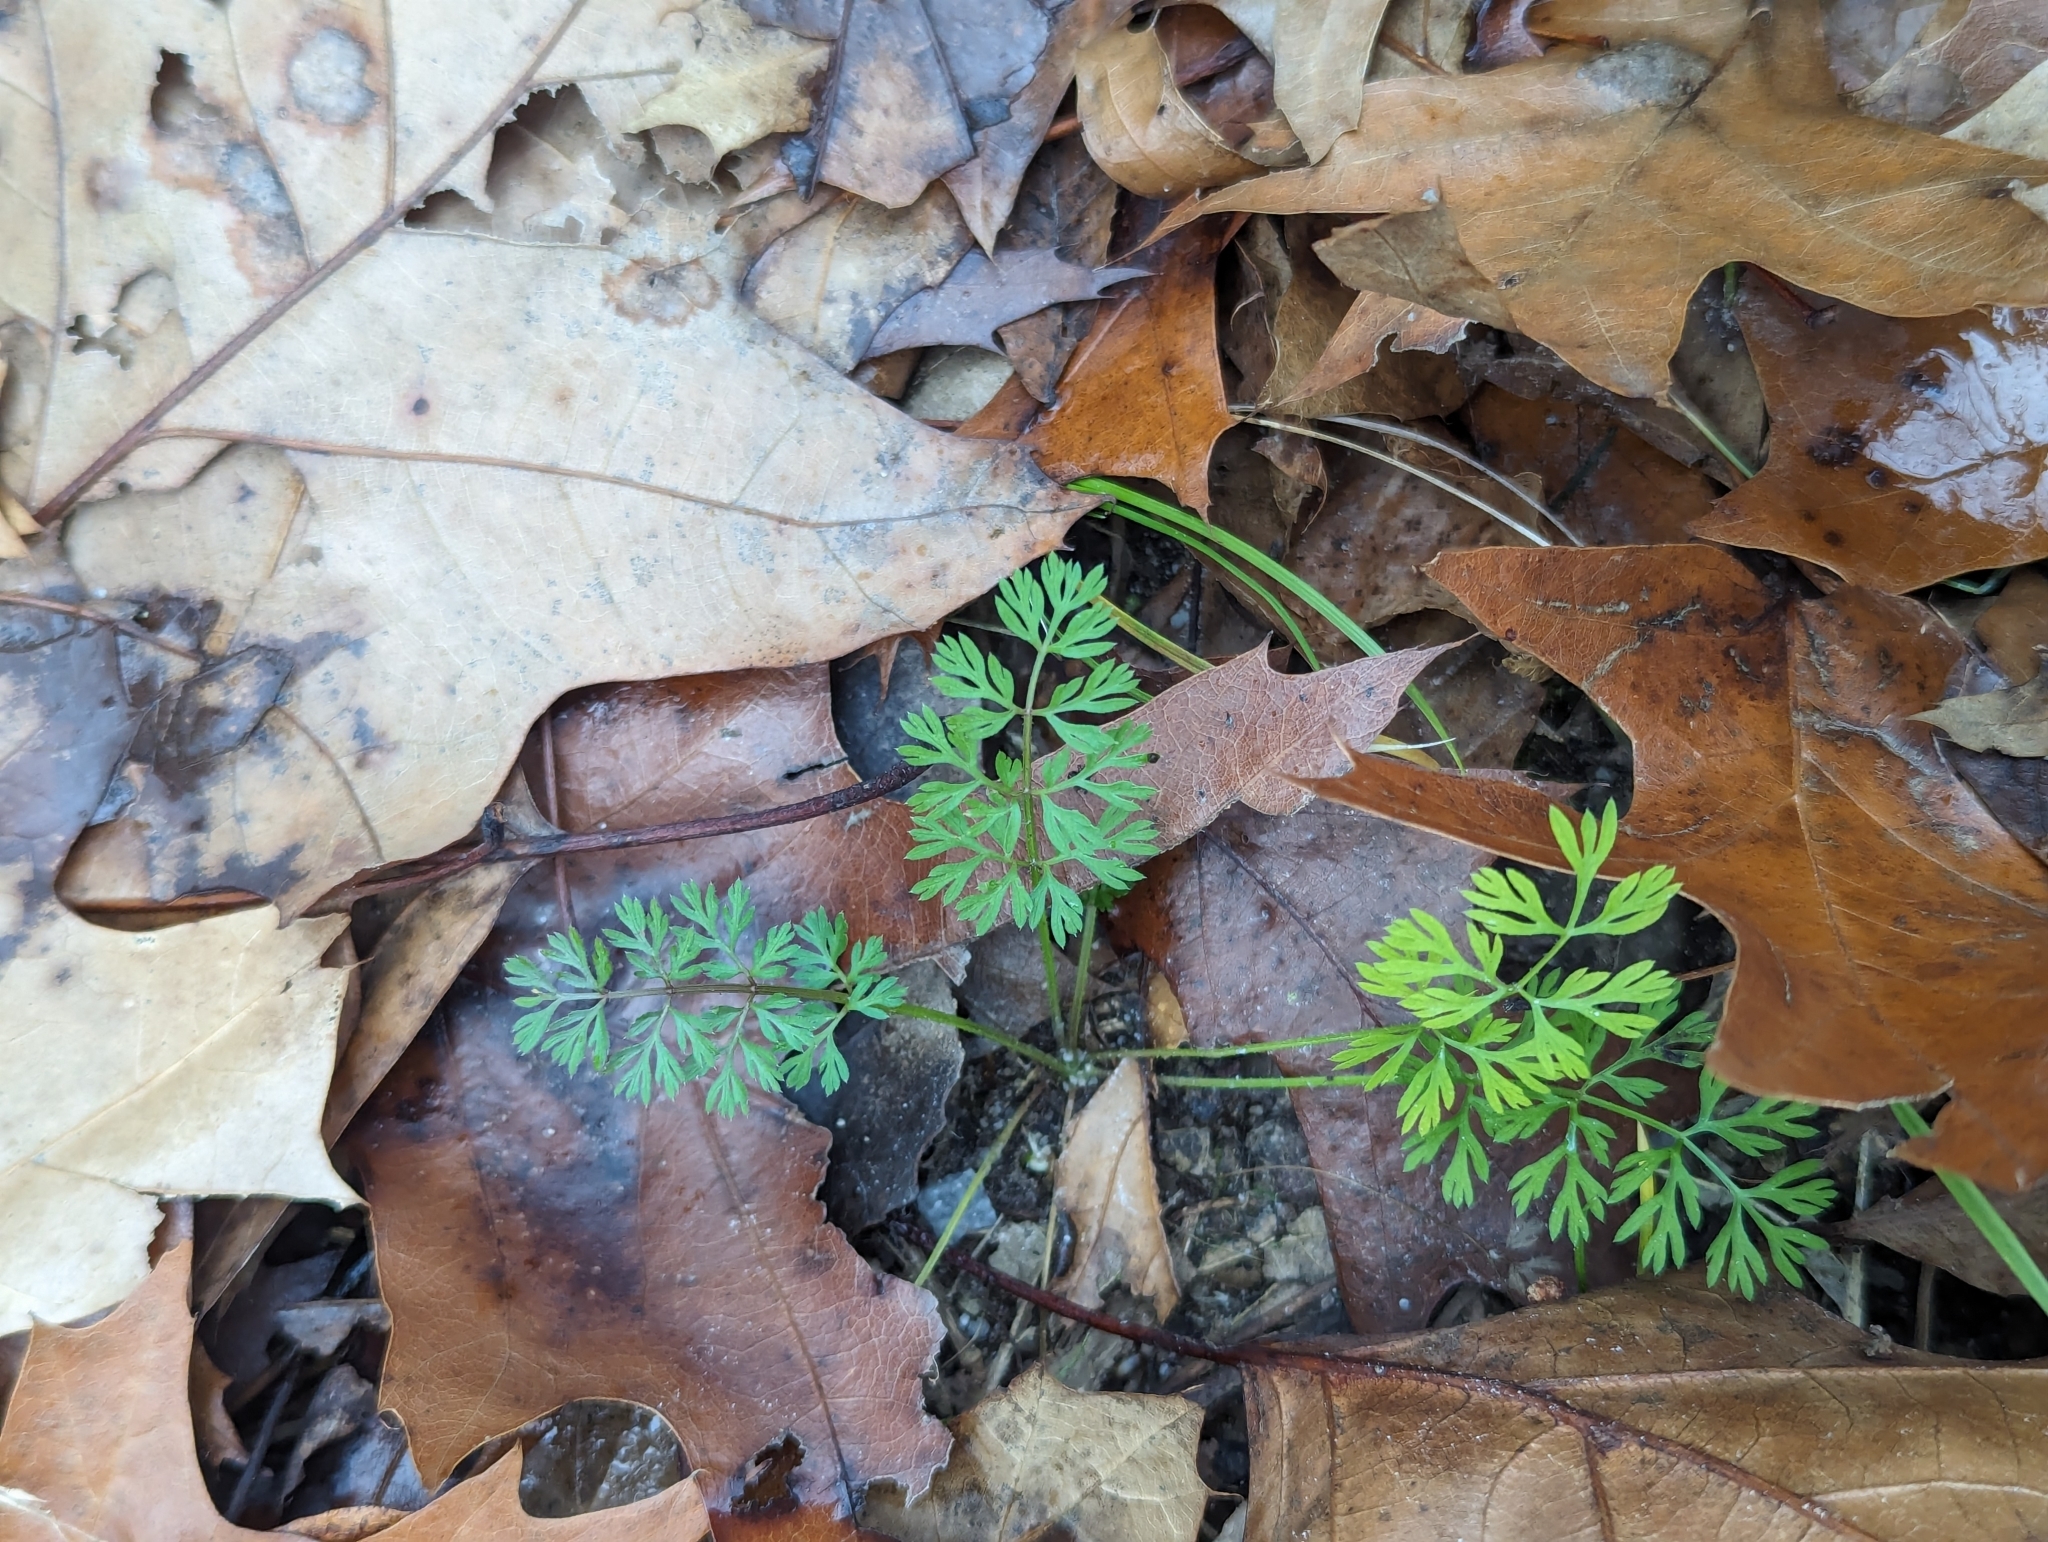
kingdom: Plantae
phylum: Tracheophyta
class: Magnoliopsida
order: Apiales
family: Apiaceae
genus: Daucus
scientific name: Daucus carota
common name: Wild carrot
